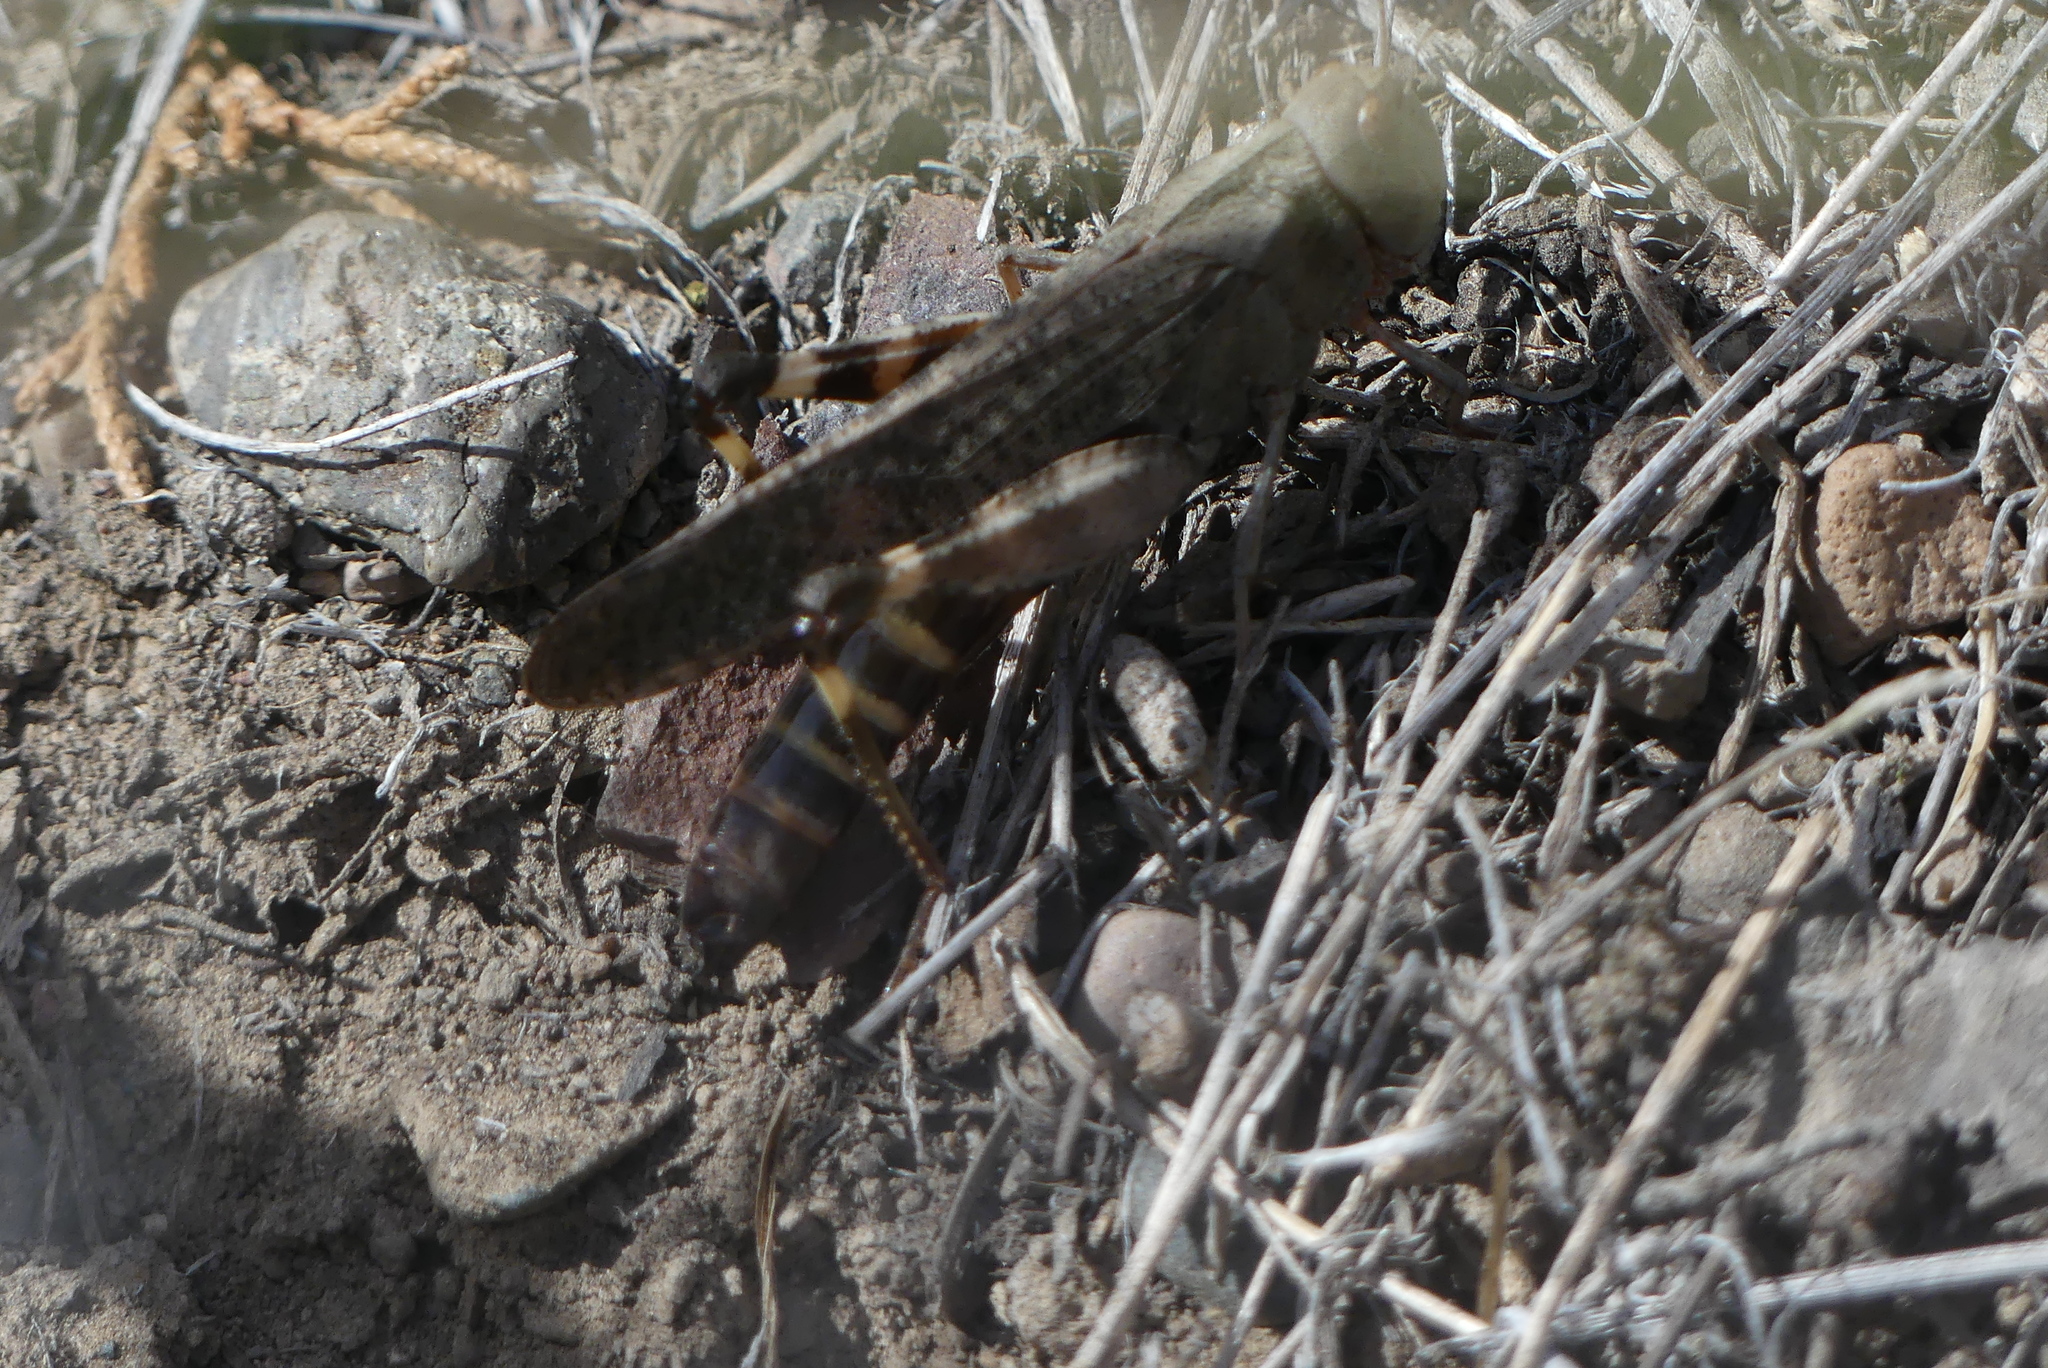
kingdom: Animalia
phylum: Arthropoda
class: Insecta
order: Orthoptera
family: Acrididae
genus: Arphia
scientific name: Arphia pseudo-nietana
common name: Red-winged grasshopper
